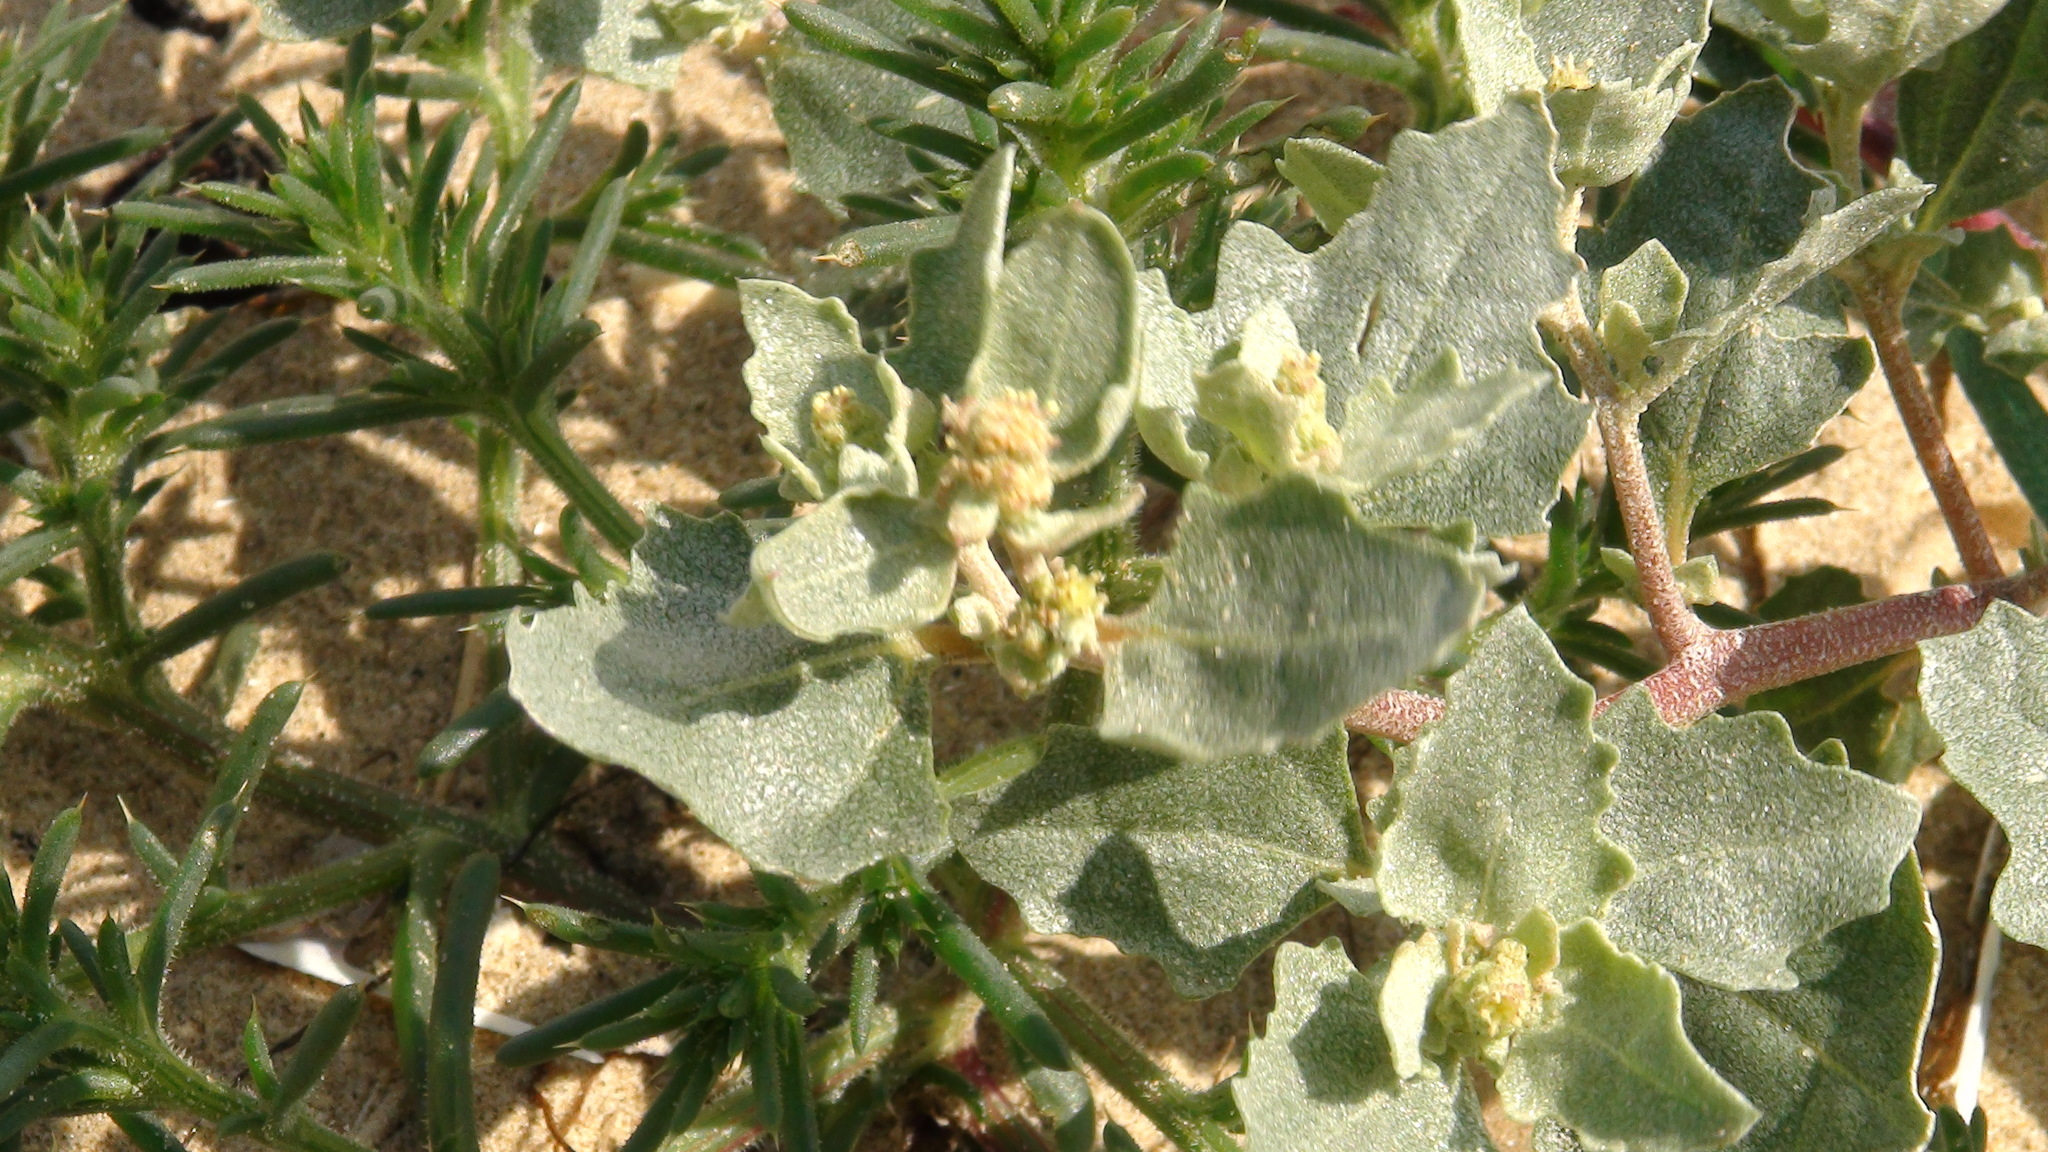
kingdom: Plantae
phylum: Tracheophyta
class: Magnoliopsida
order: Caryophyllales
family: Amaranthaceae
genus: Atriplex
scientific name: Atriplex laciniata
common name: Frosted orache
